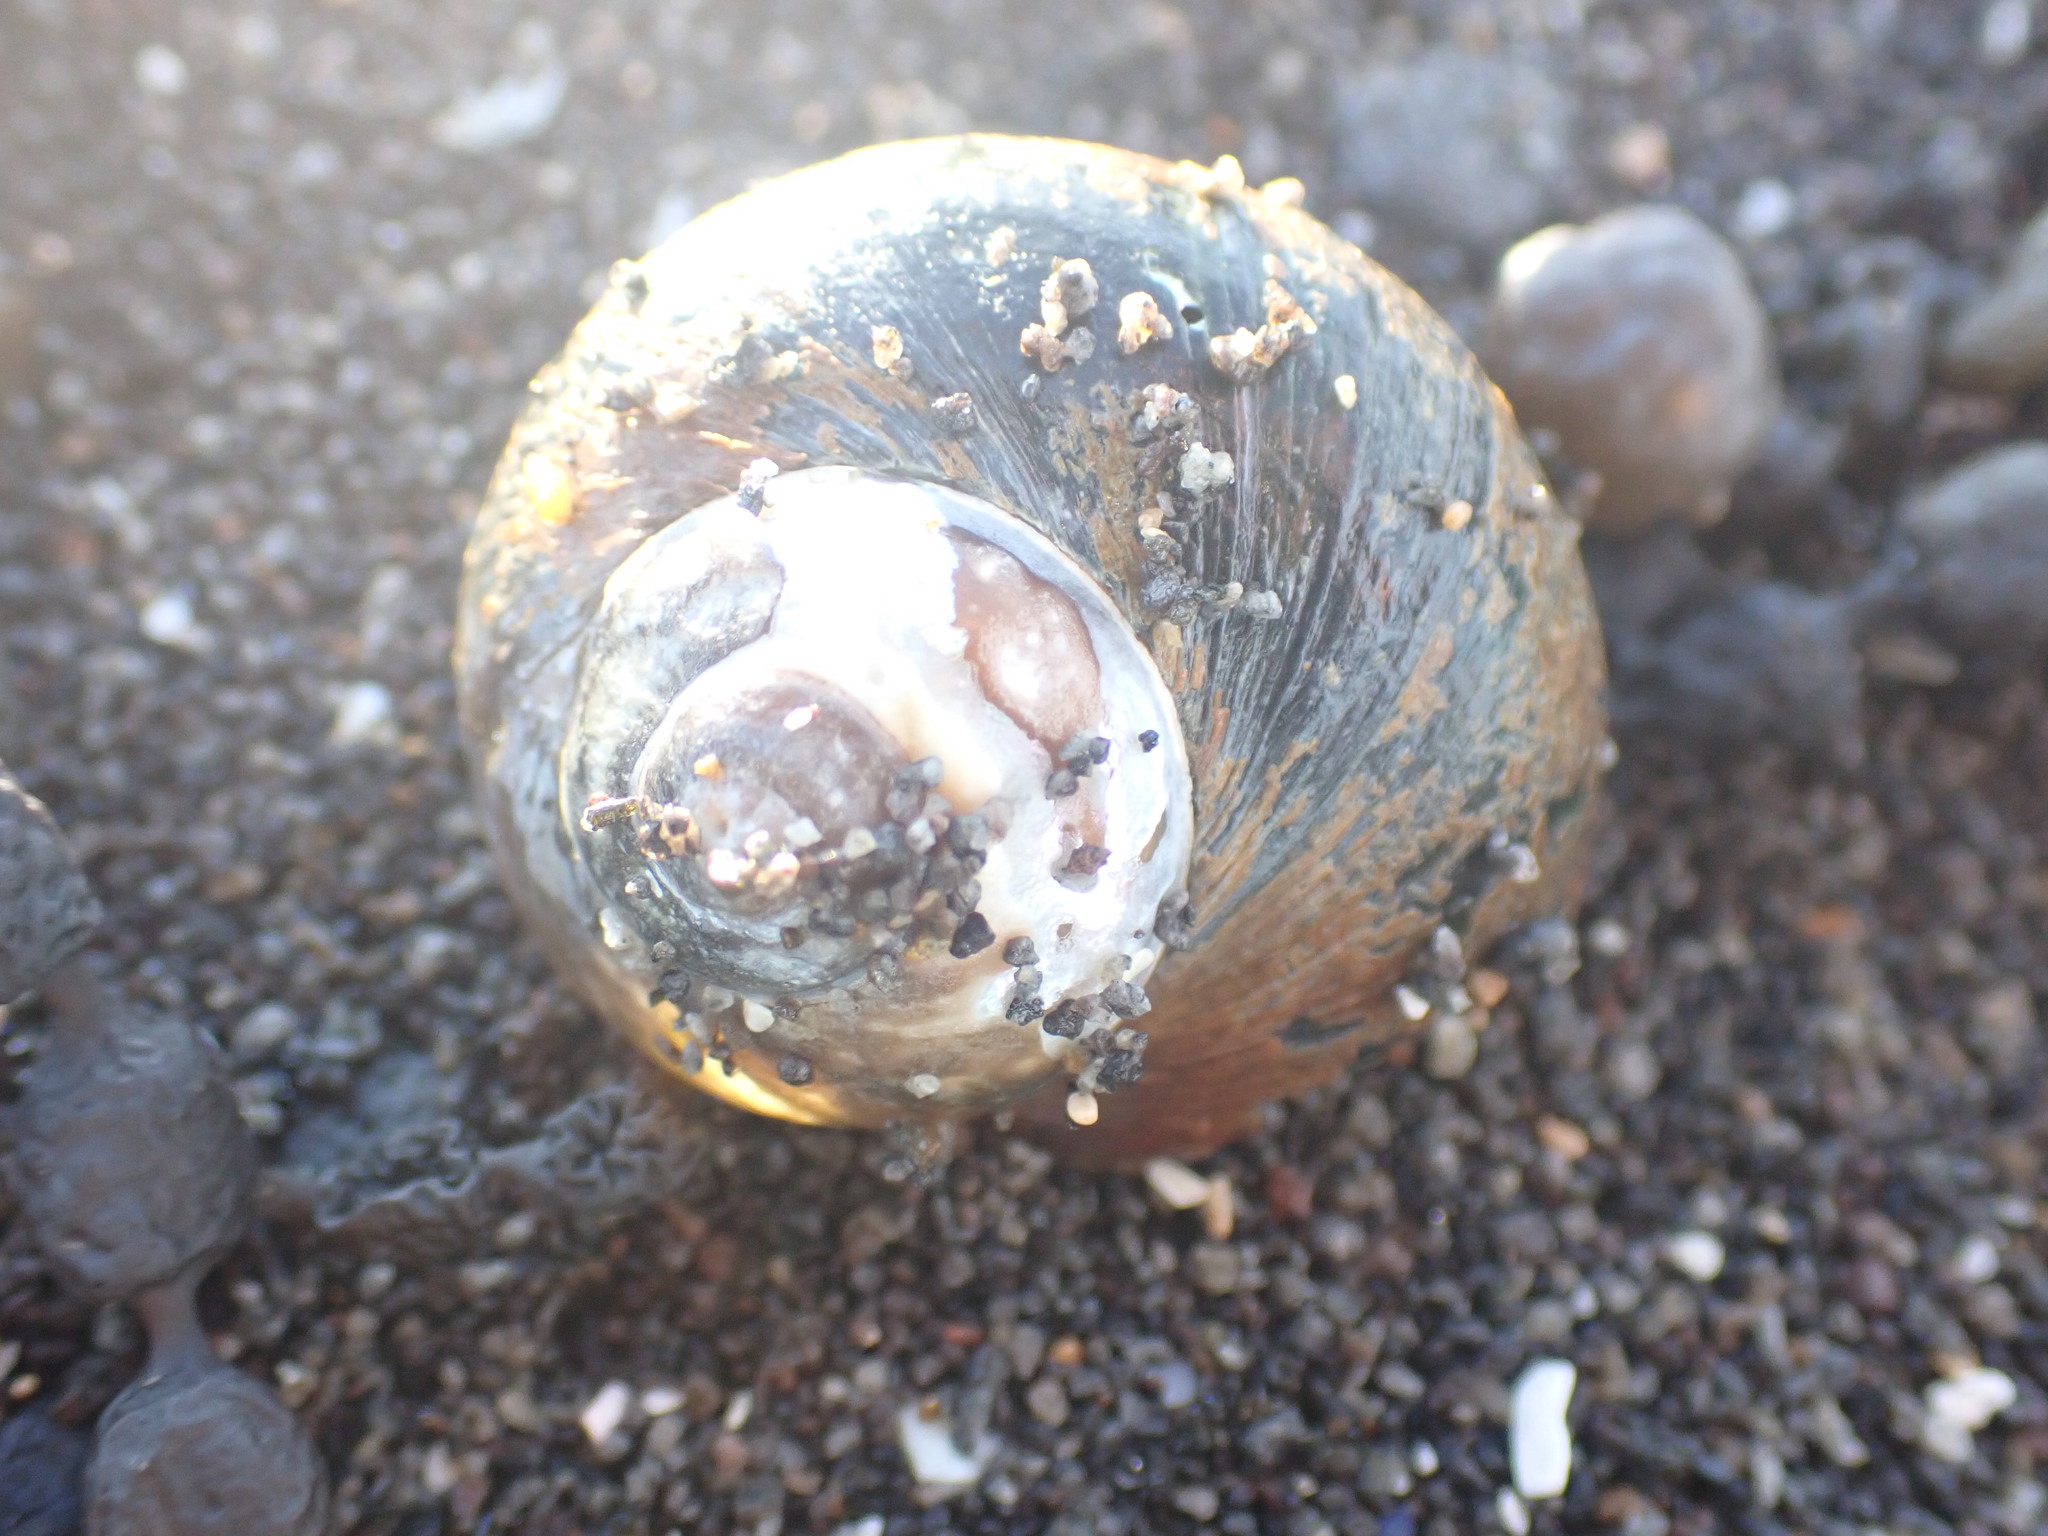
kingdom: Animalia
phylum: Mollusca
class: Gastropoda
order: Trochida
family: Turbinidae
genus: Lunella
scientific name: Lunella smaragda
